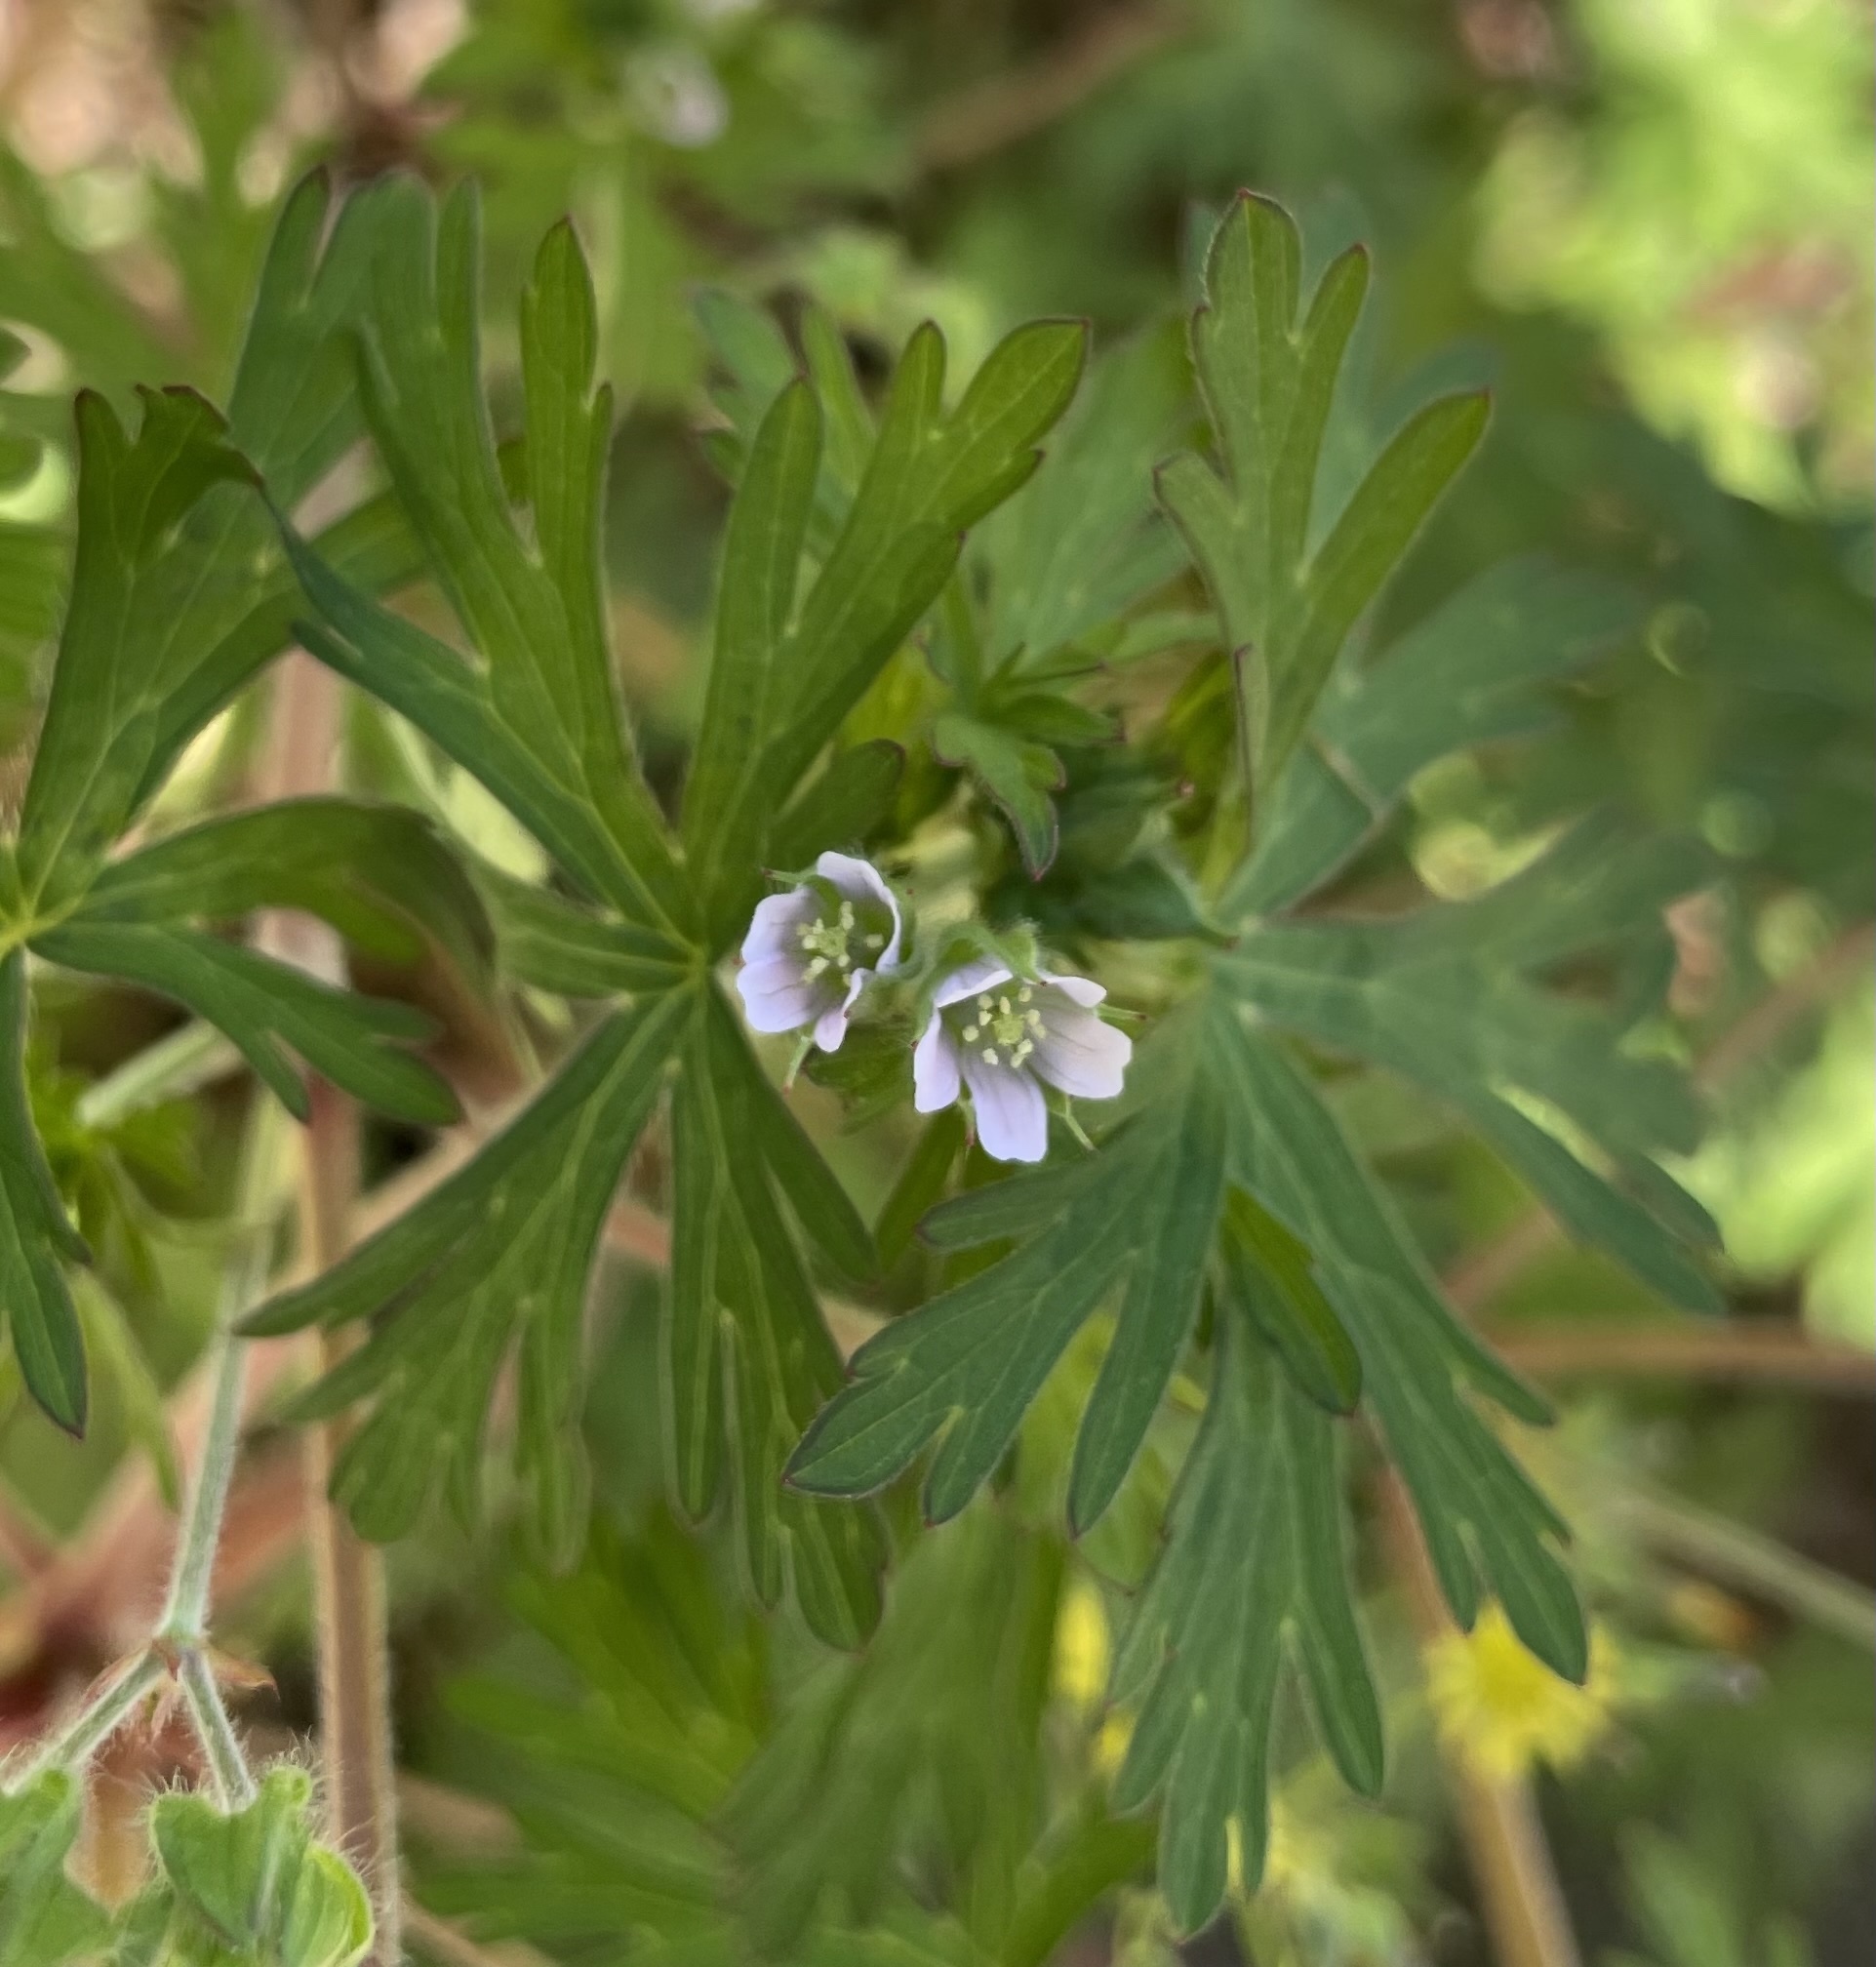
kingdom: Plantae
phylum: Tracheophyta
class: Magnoliopsida
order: Geraniales
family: Geraniaceae
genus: Geranium
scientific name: Geranium carolinianum
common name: Carolina crane's-bill
